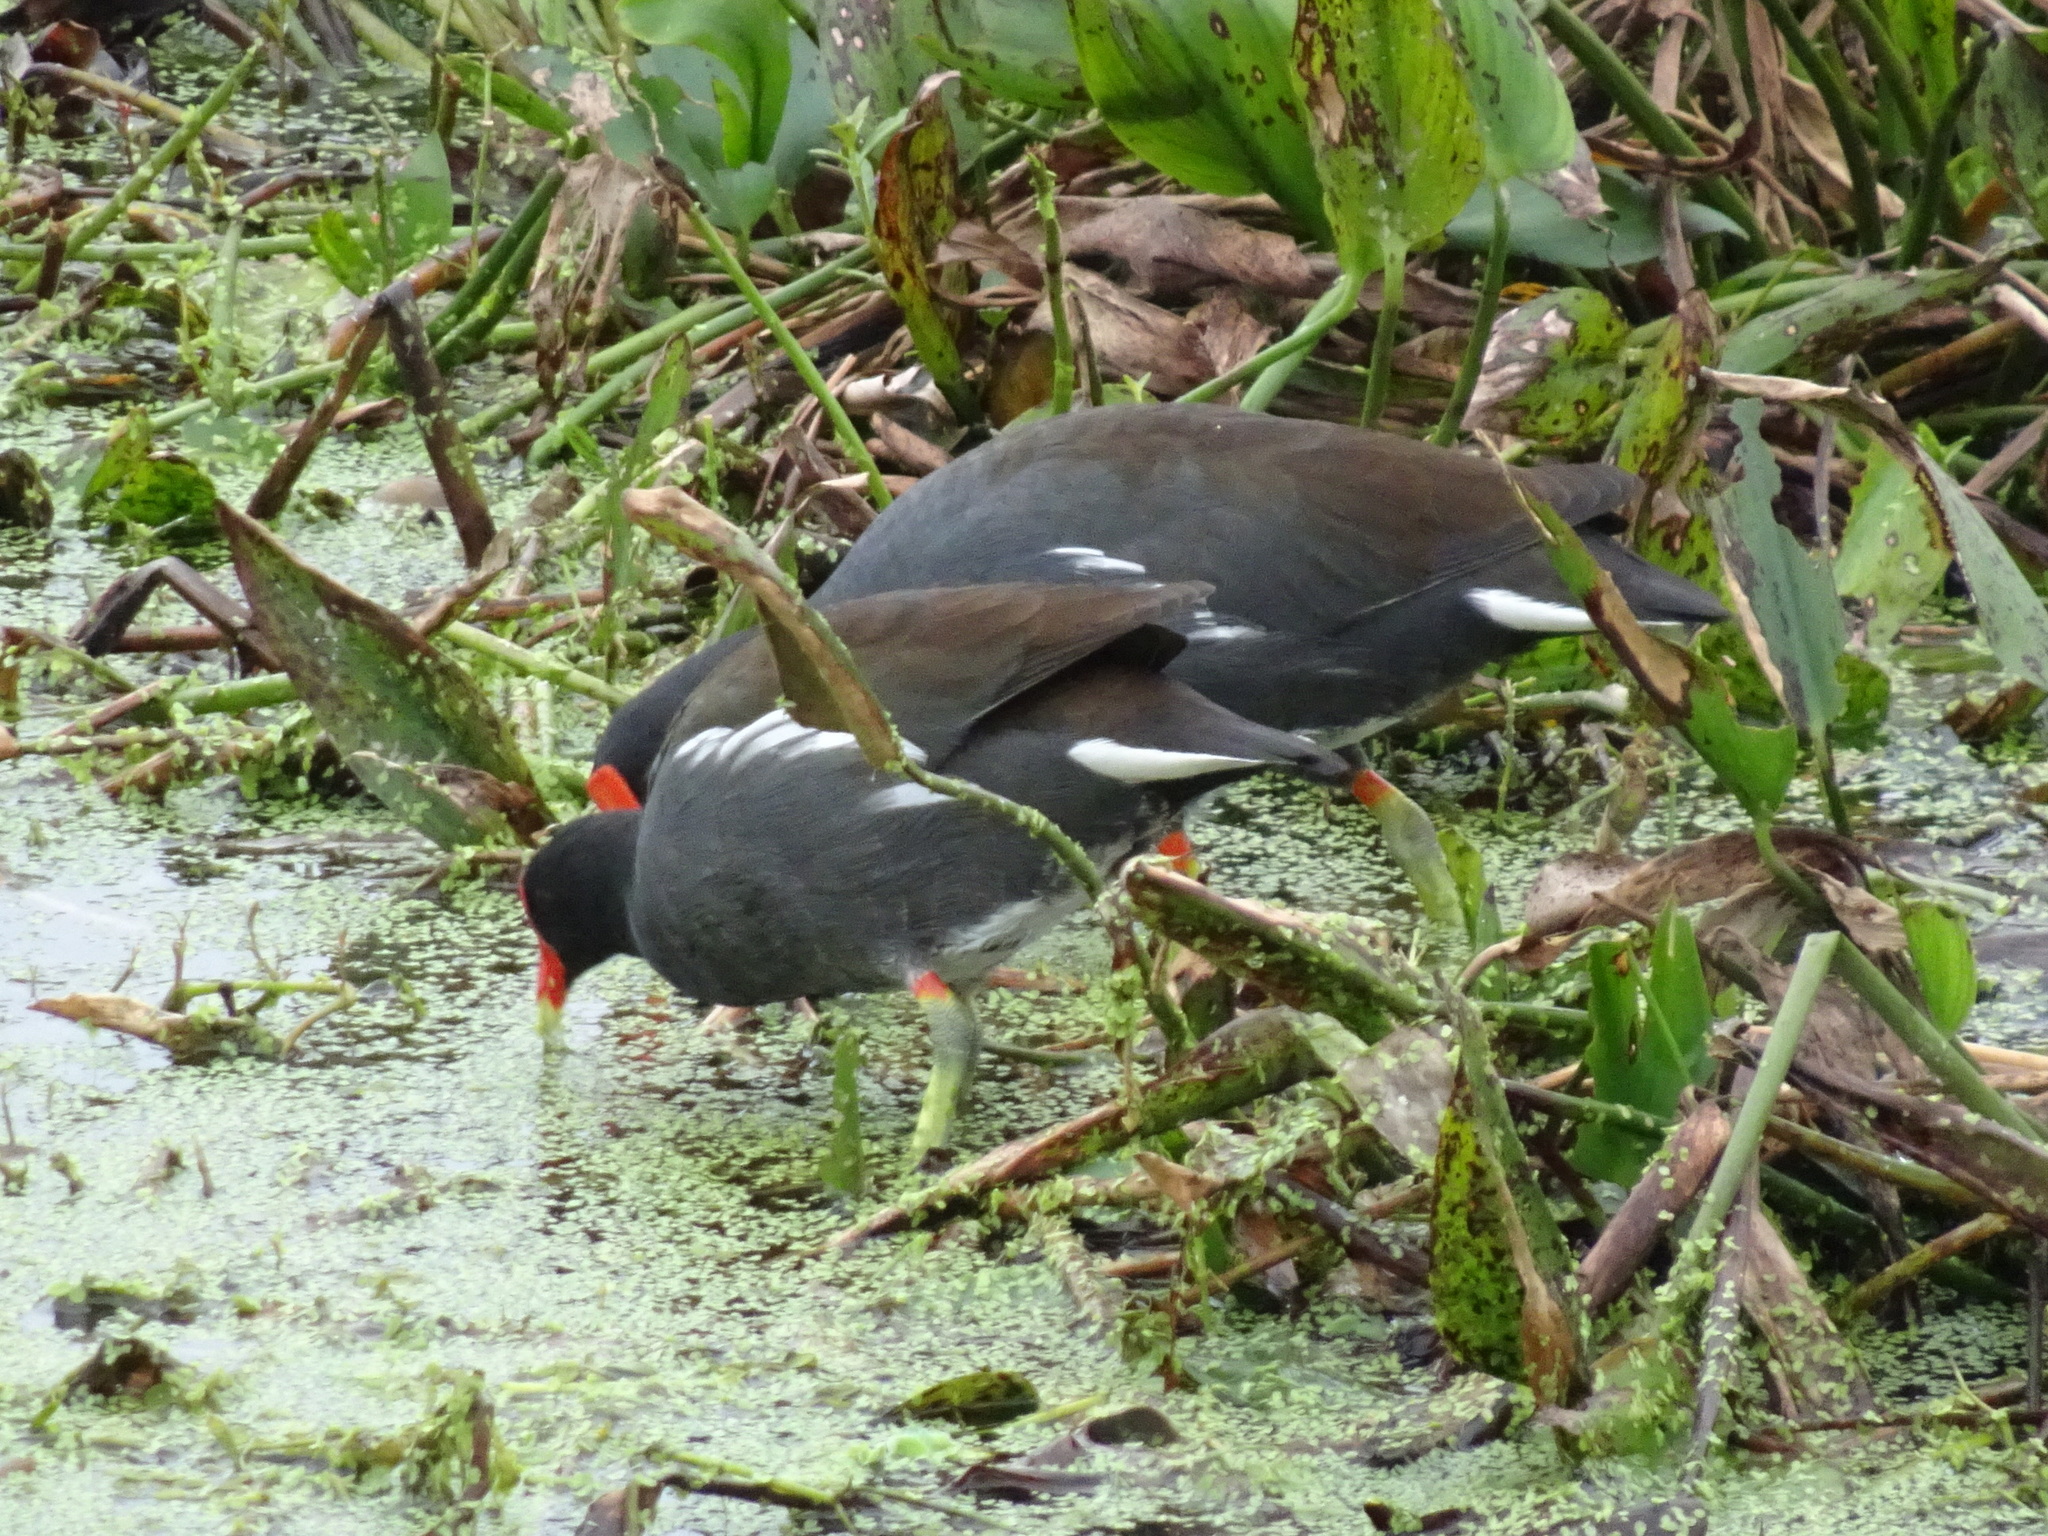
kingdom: Animalia
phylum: Chordata
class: Aves
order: Gruiformes
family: Rallidae
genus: Gallinula
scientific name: Gallinula chloropus
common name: Common moorhen
